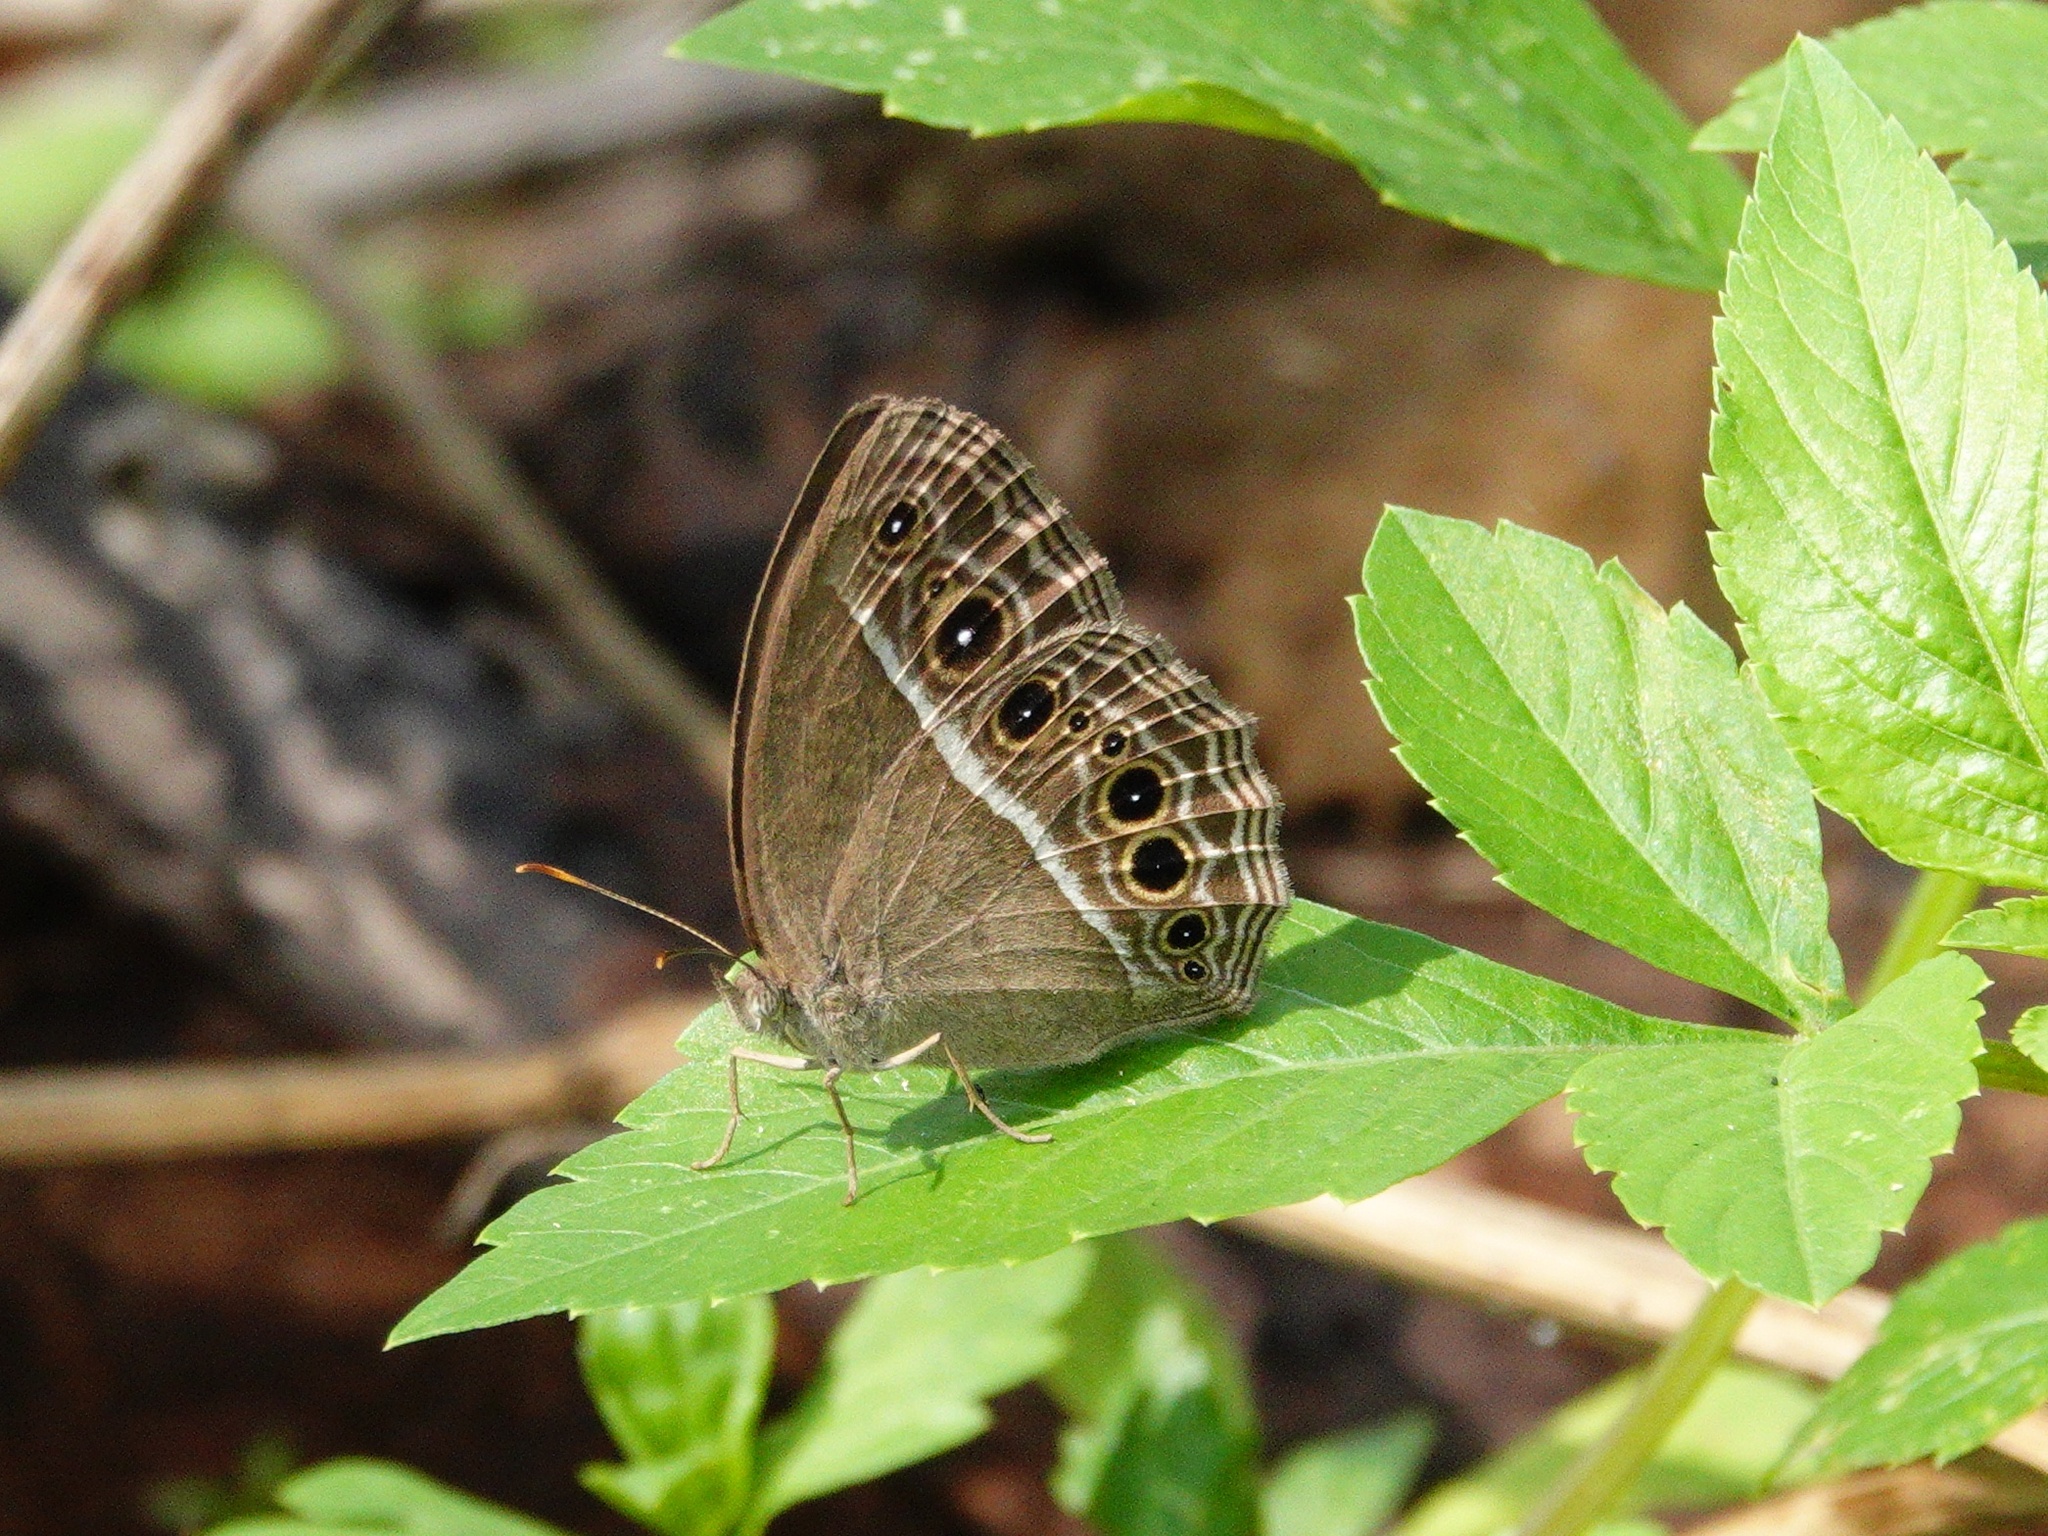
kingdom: Animalia
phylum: Arthropoda
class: Insecta
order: Lepidoptera
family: Nymphalidae
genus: Mycalesis
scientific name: Mycalesis mineus
